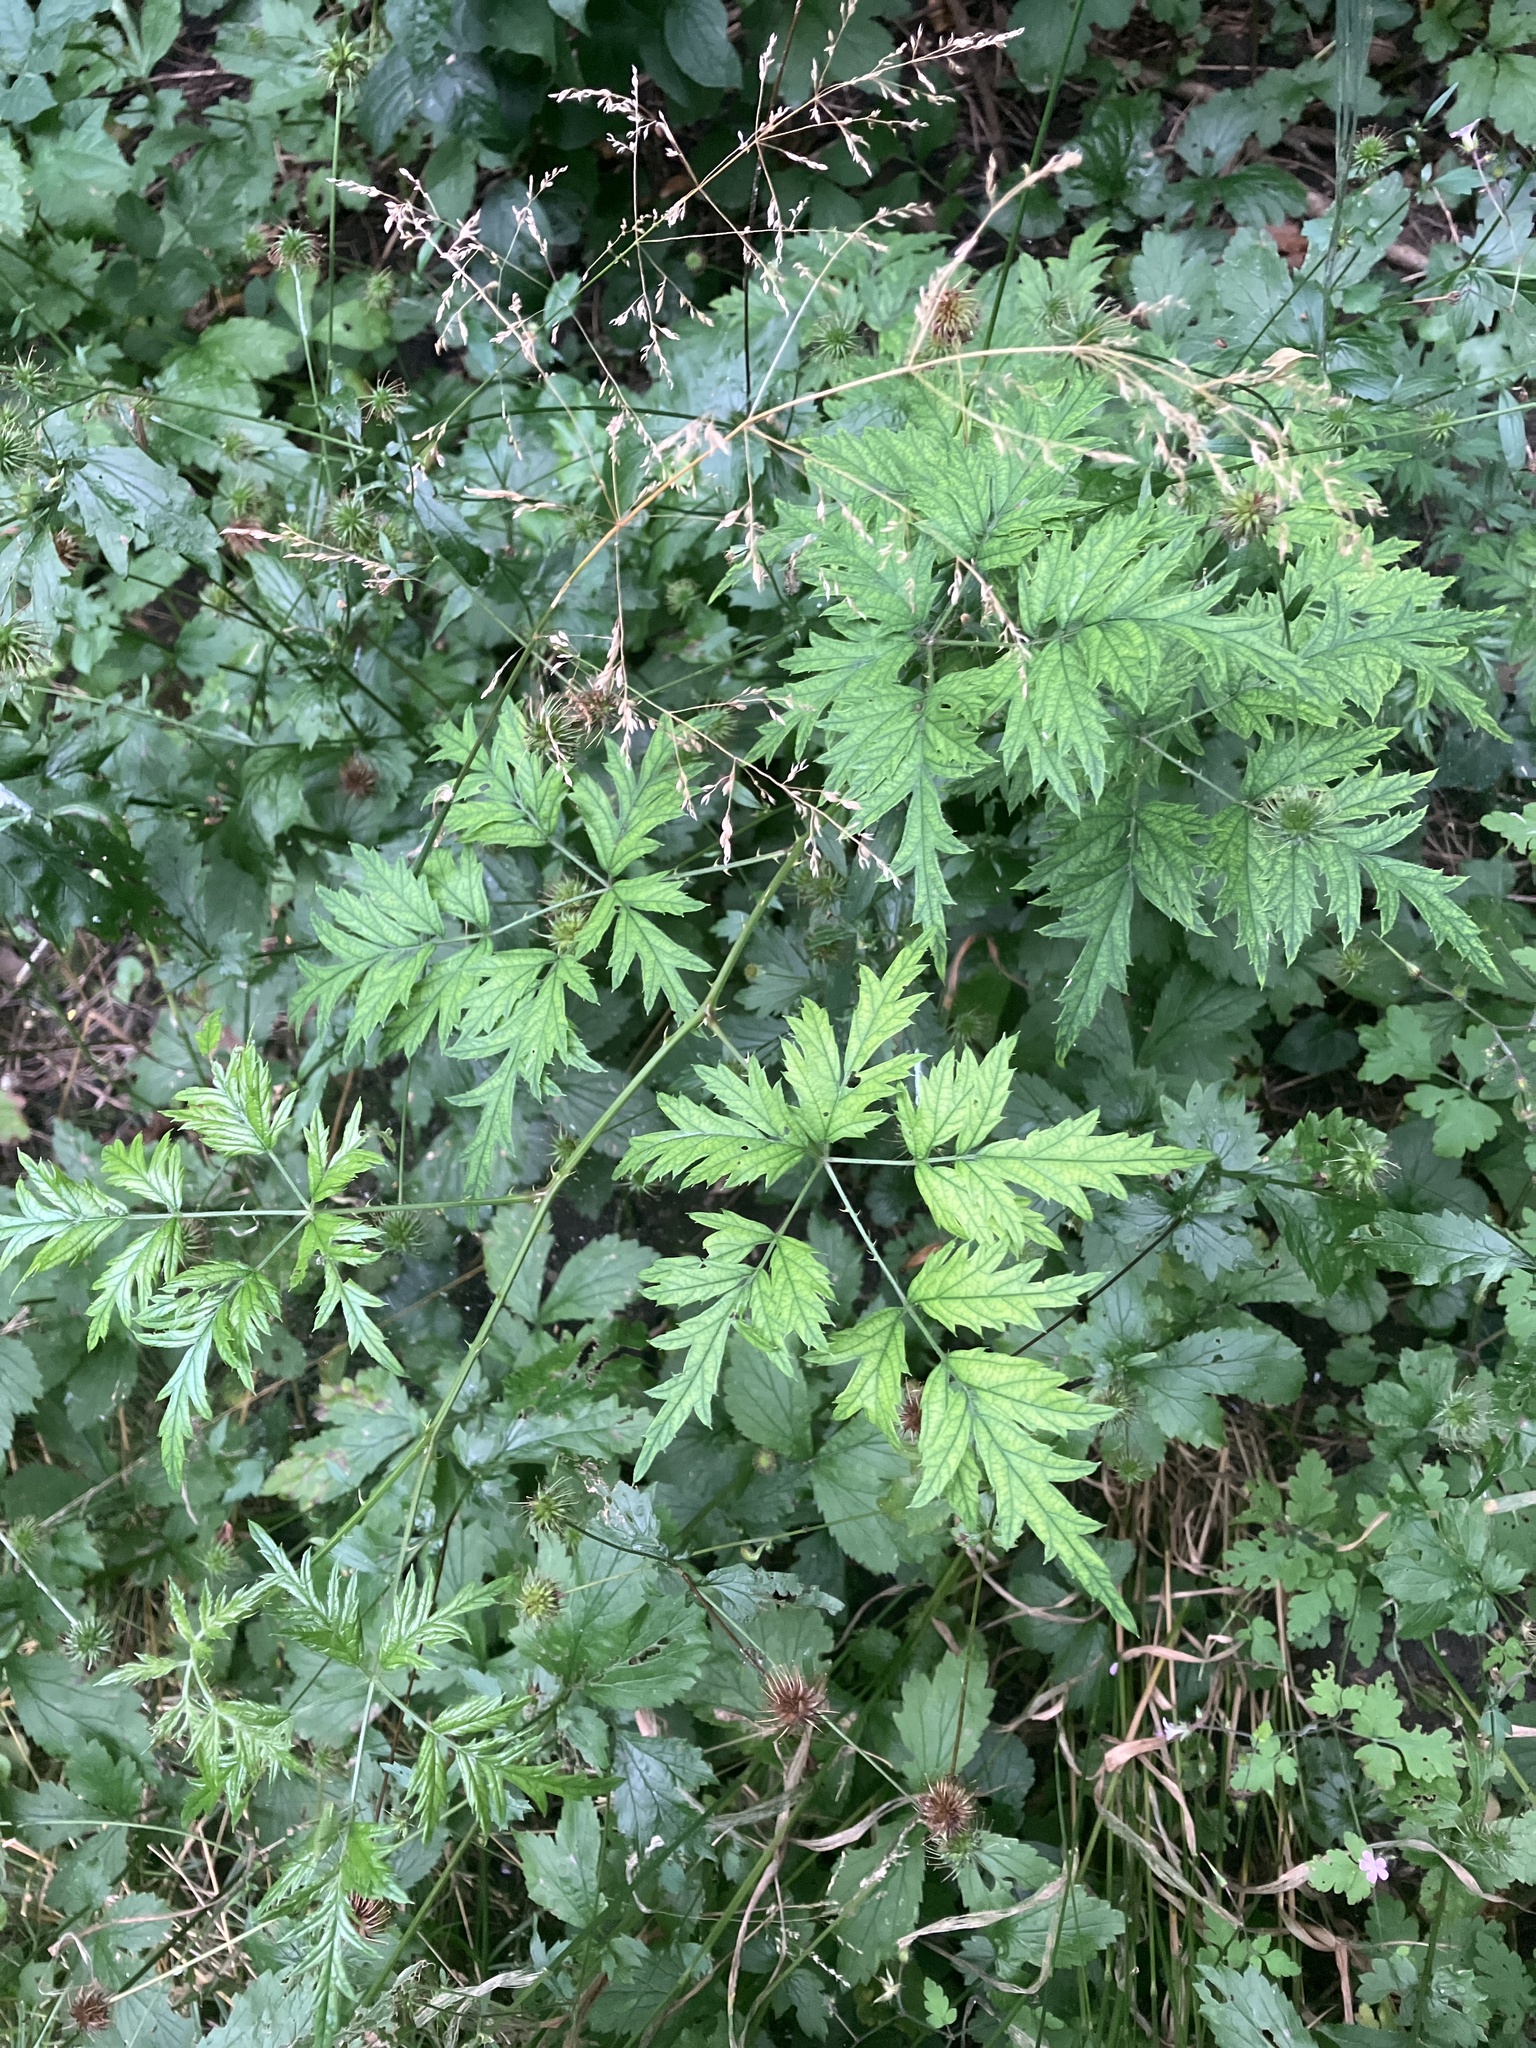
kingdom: Plantae
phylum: Tracheophyta
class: Magnoliopsida
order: Rosales
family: Rosaceae
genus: Rubus
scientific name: Rubus laciniatus
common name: Evergreen blackberry
